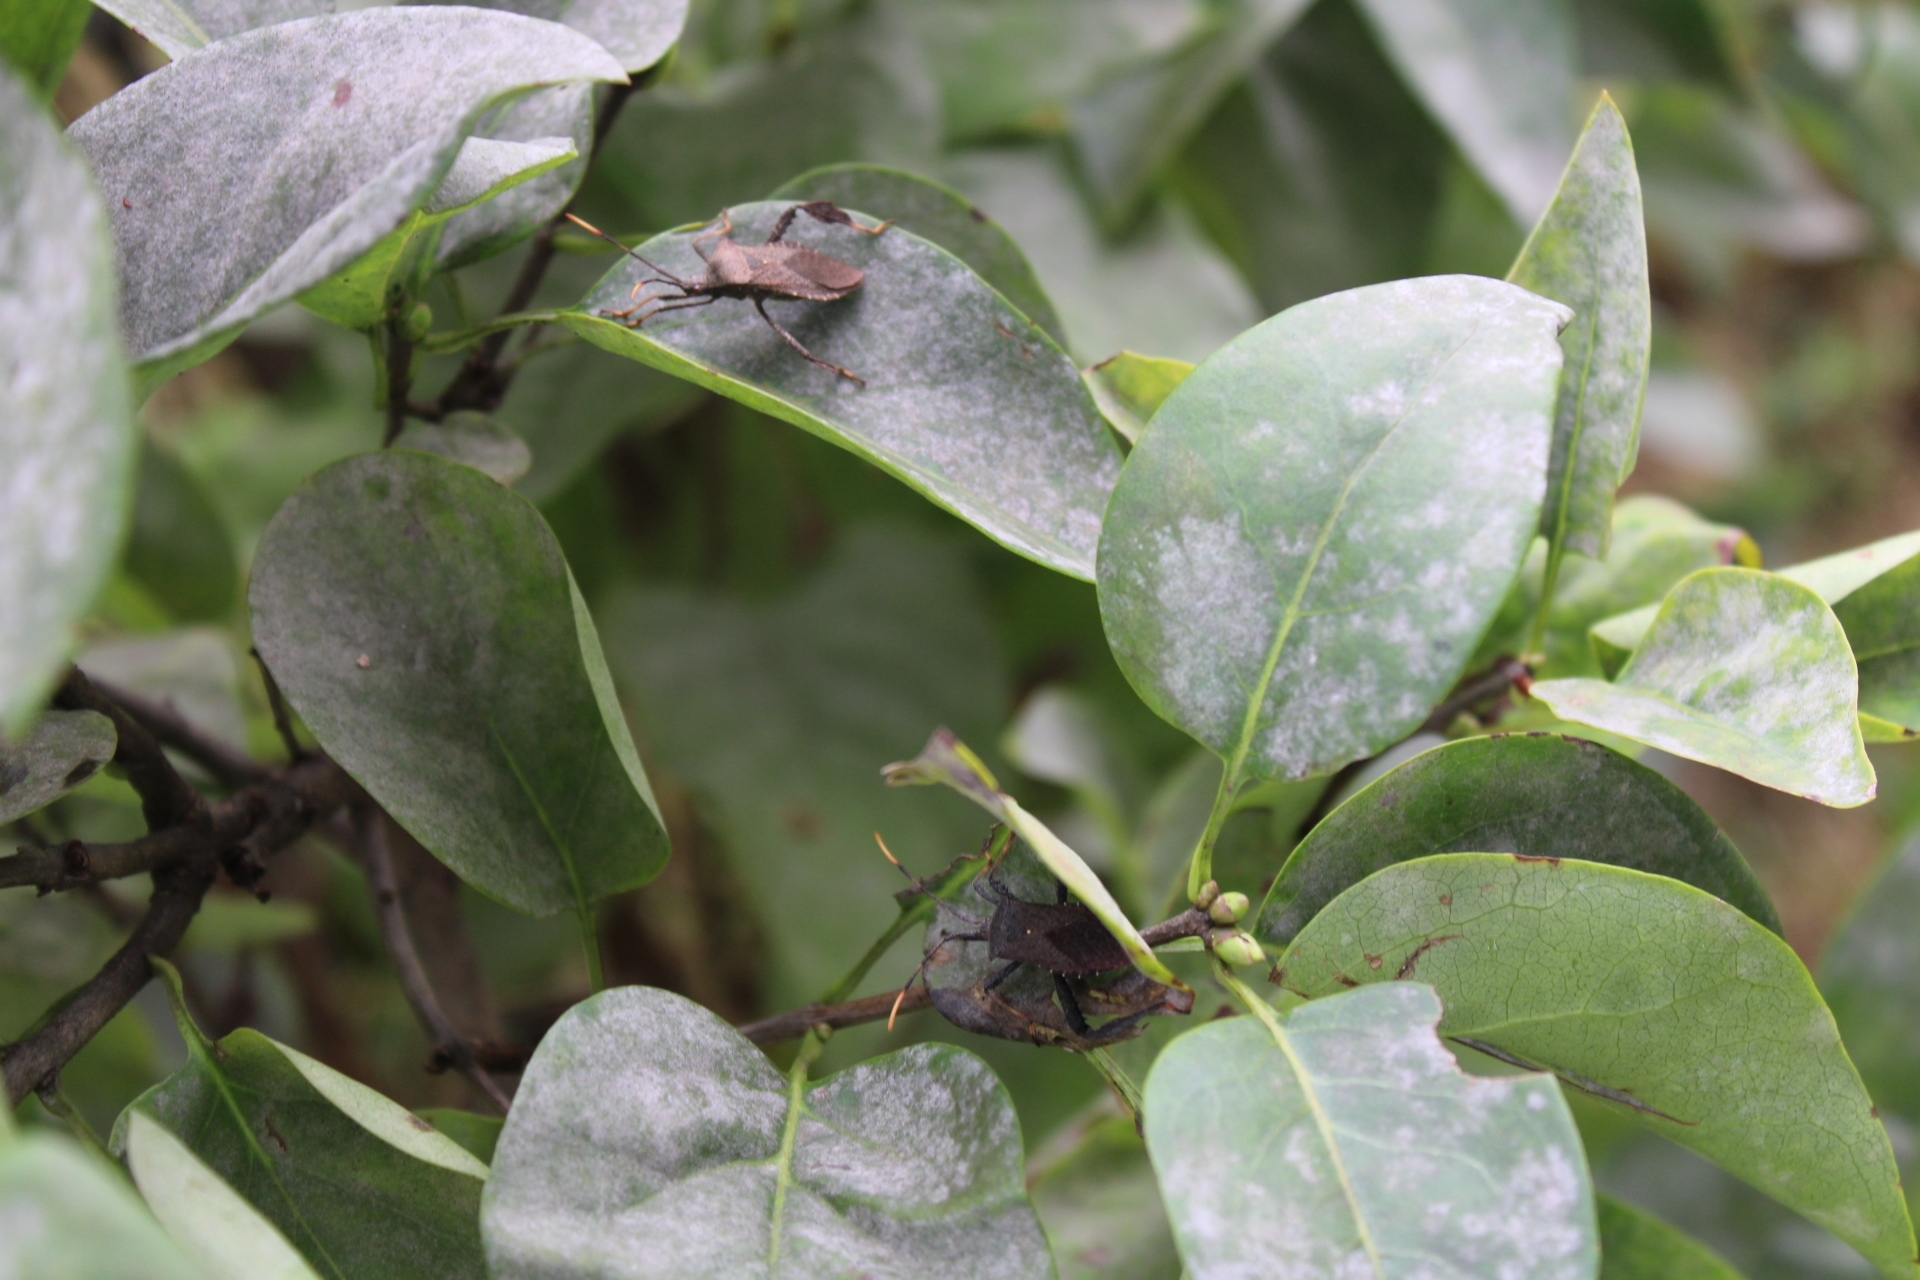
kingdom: Animalia
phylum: Arthropoda
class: Insecta
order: Hemiptera
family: Coreidae
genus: Acanthocephala
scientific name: Acanthocephala terminalis
